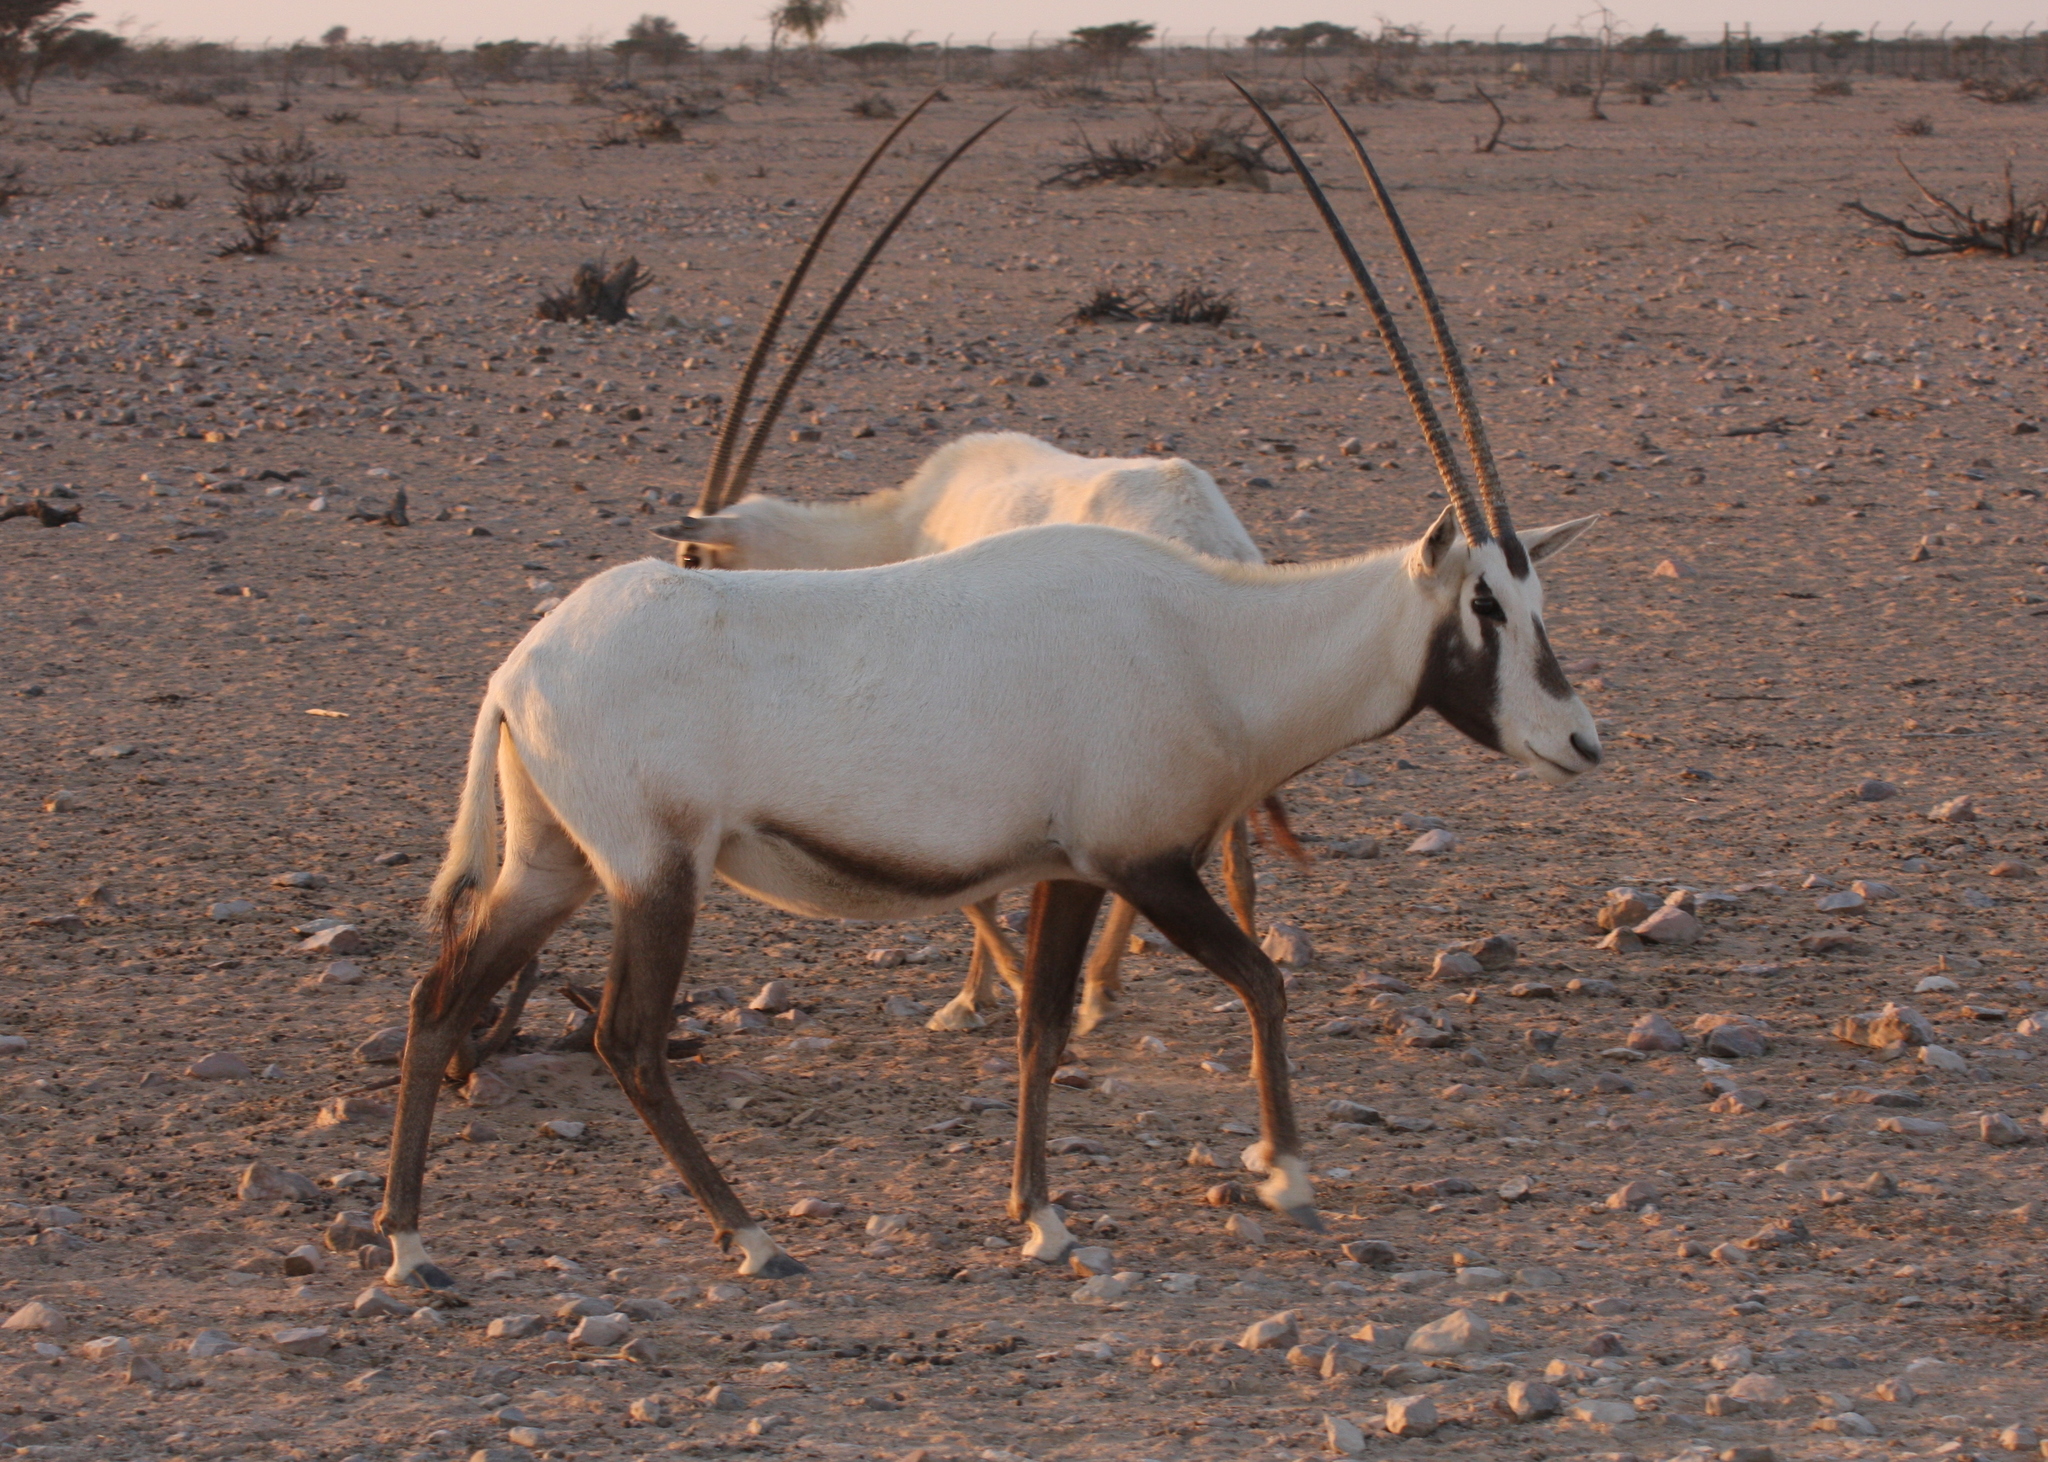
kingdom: Animalia
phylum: Chordata
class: Mammalia
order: Artiodactyla
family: Bovidae
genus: Oryx
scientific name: Oryx leucoryx
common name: Arabian oryx
